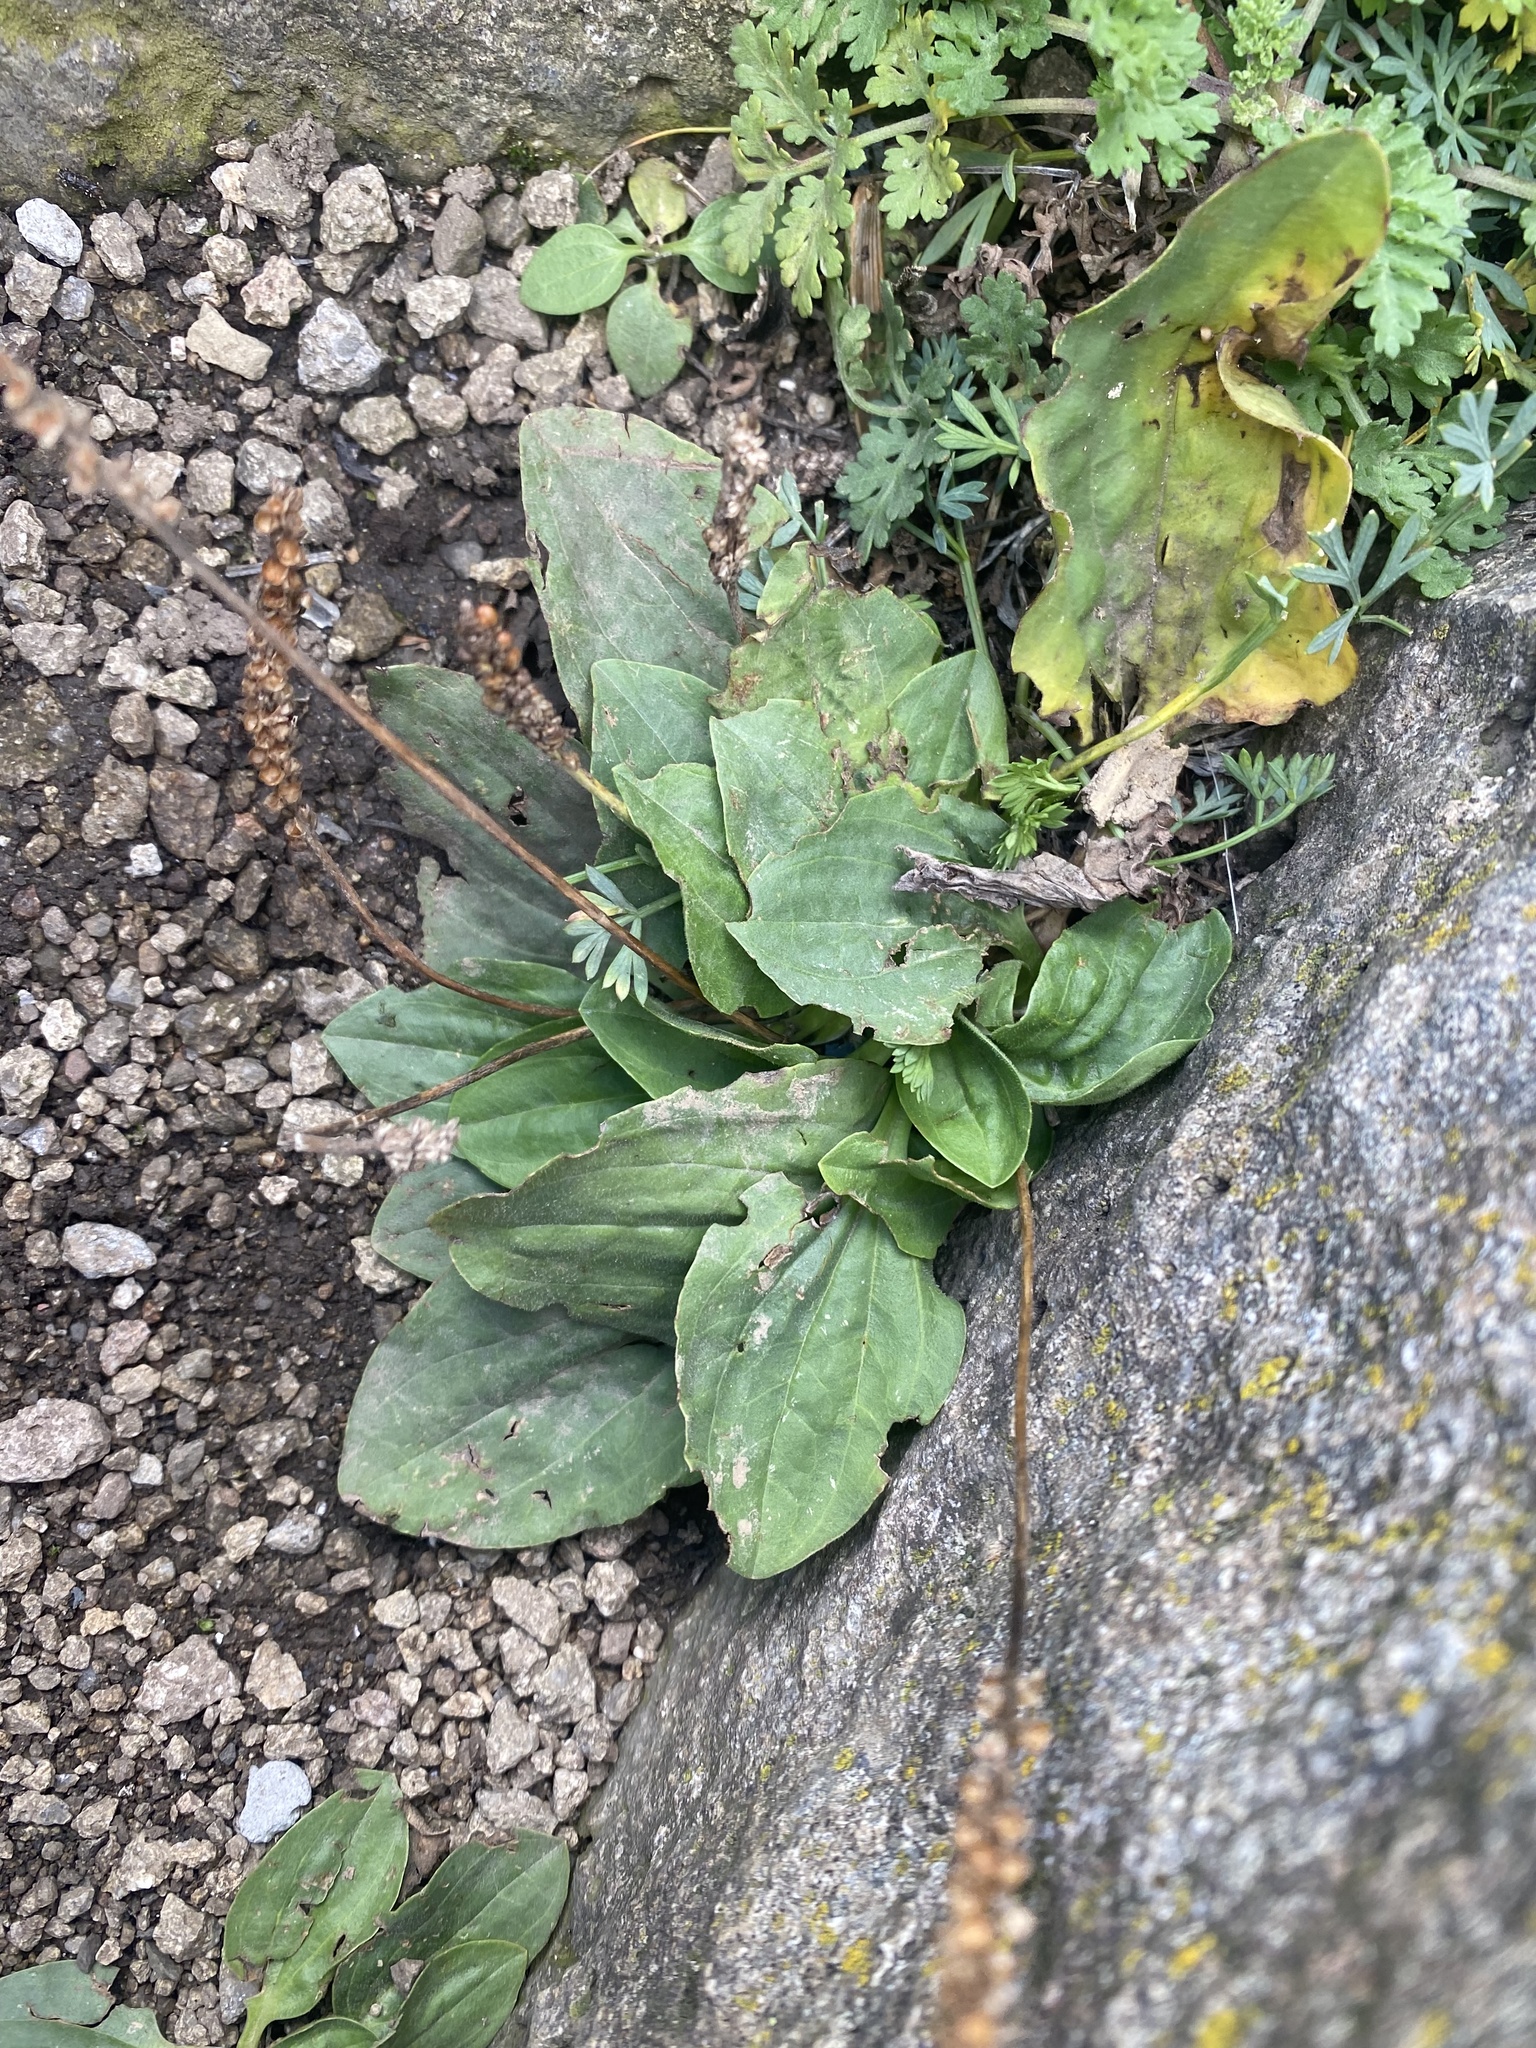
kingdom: Plantae
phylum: Tracheophyta
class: Magnoliopsida
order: Lamiales
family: Plantaginaceae
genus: Plantago
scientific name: Plantago major
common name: Common plantain
